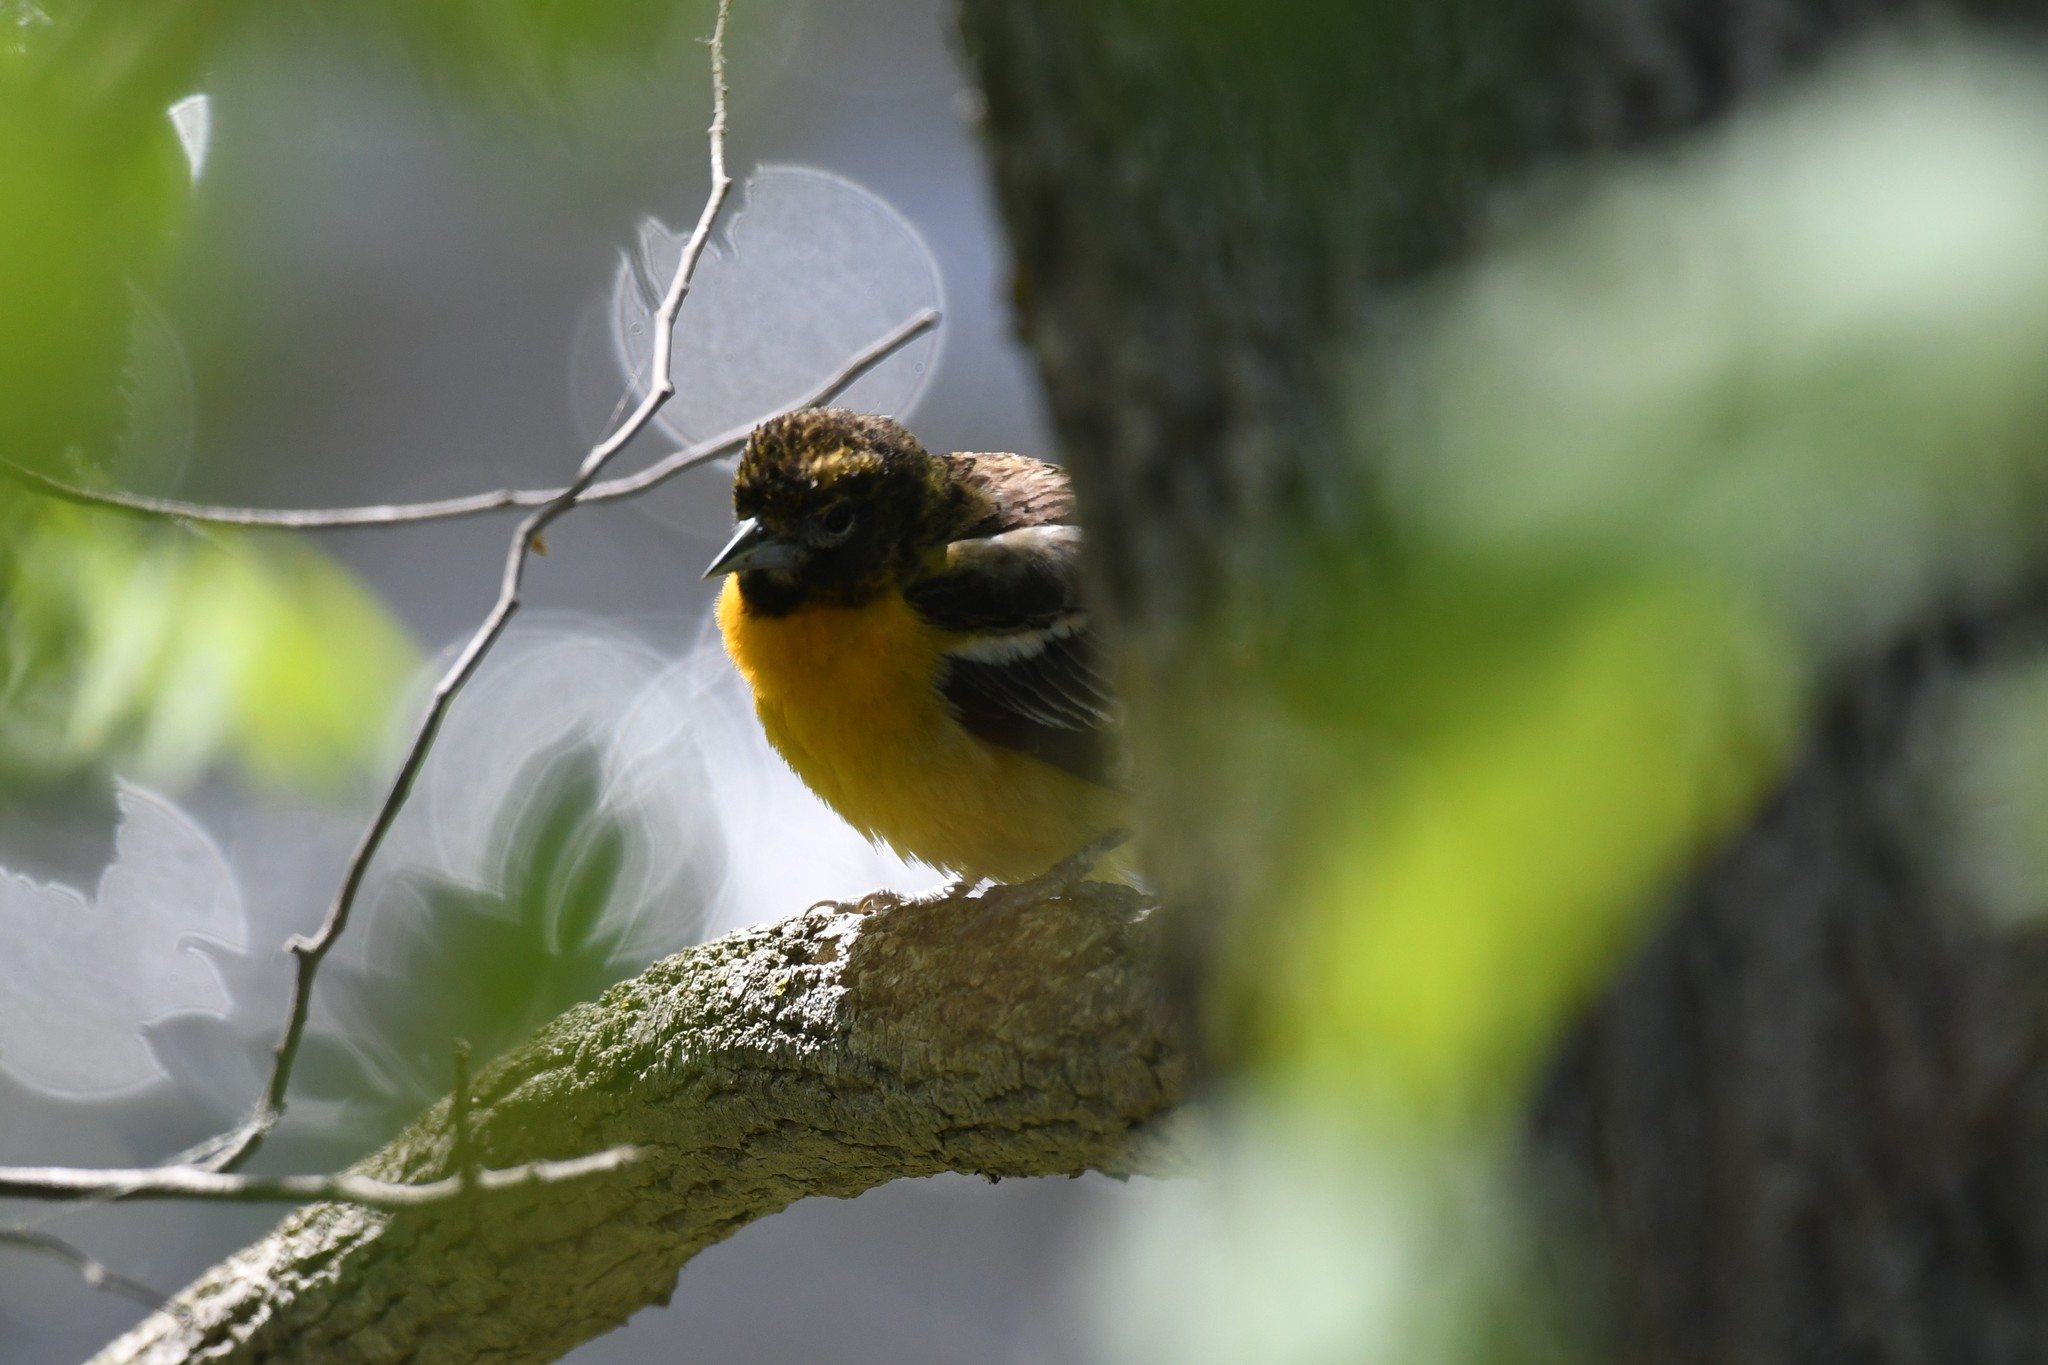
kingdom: Animalia
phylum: Chordata
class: Aves
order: Passeriformes
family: Icteridae
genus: Icterus
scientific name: Icterus galbula
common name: Baltimore oriole
